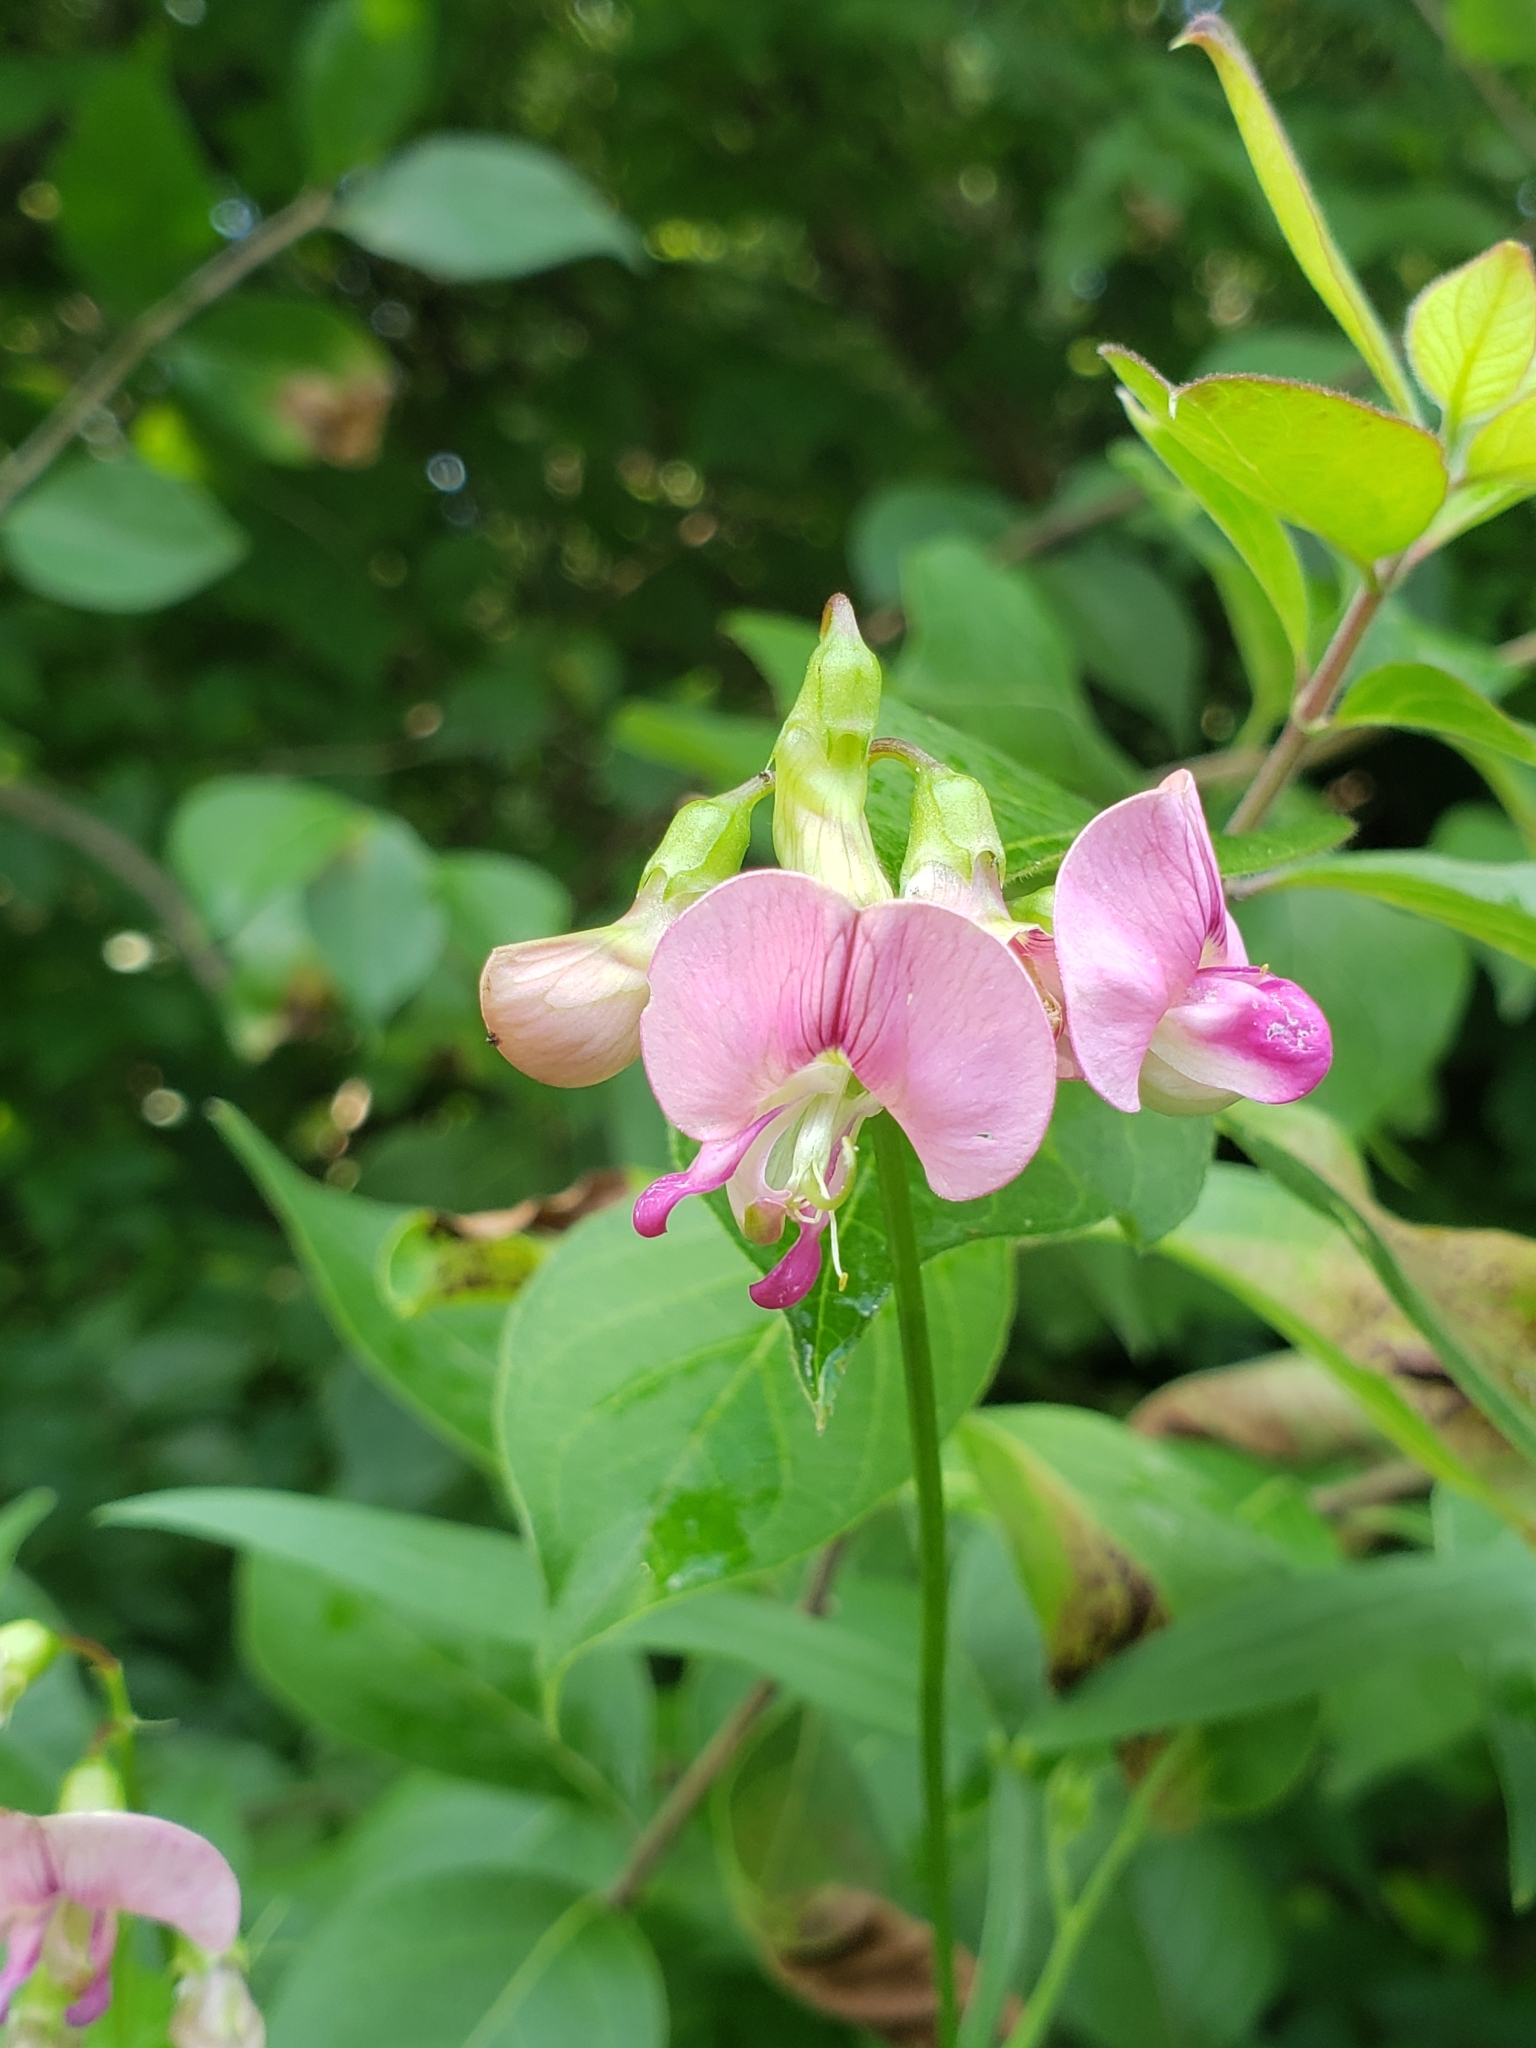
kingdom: Plantae
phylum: Tracheophyta
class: Magnoliopsida
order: Fabales
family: Fabaceae
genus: Lathyrus
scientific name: Lathyrus sylvestris
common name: Flat pea
